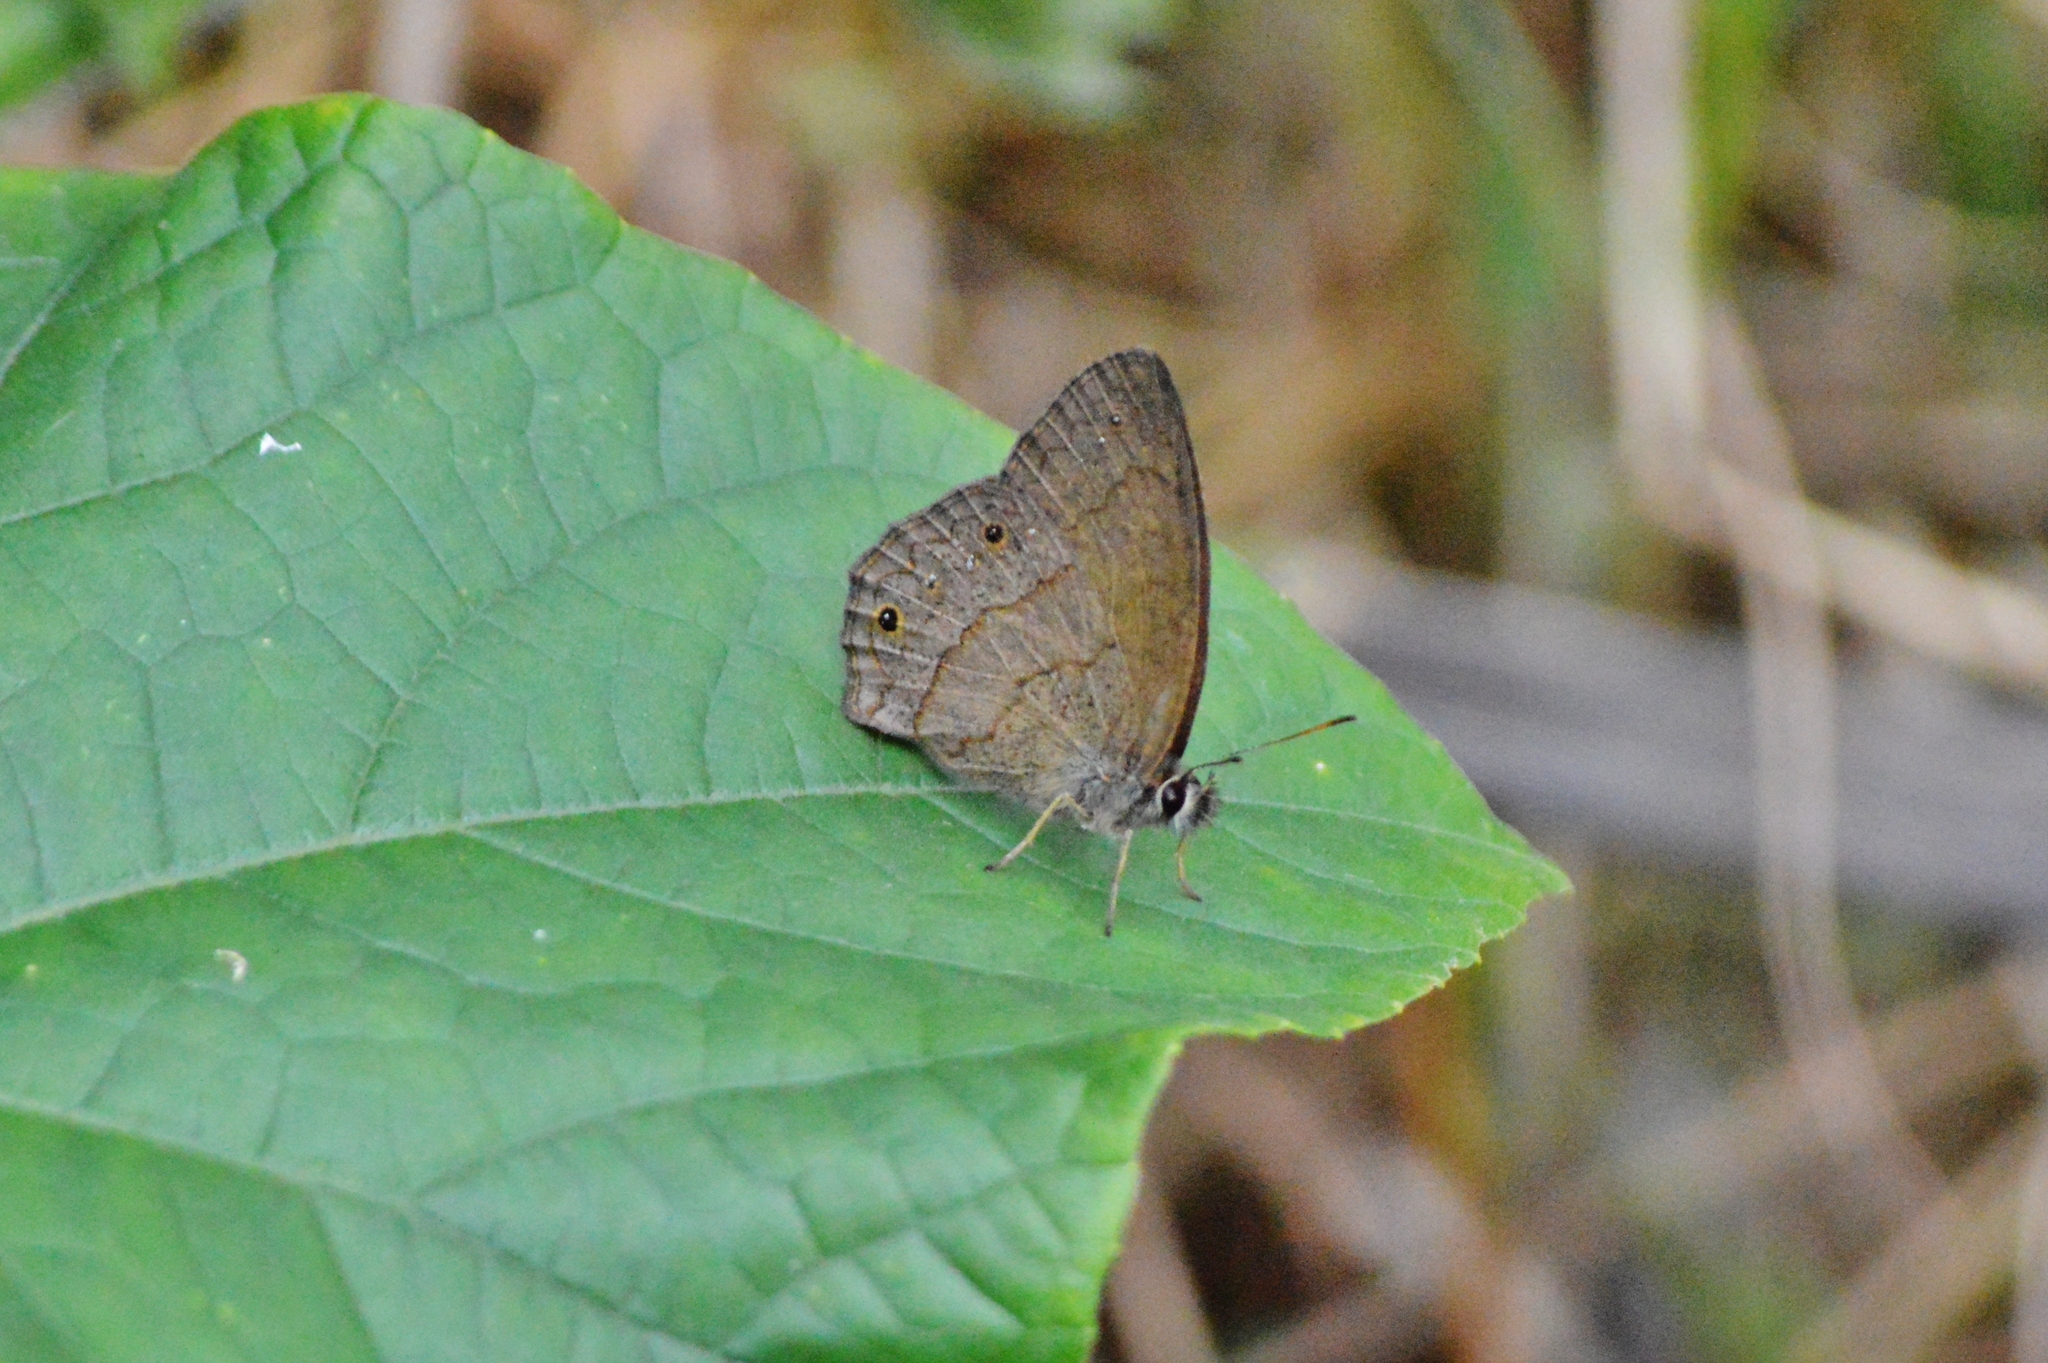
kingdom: Animalia
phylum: Arthropoda
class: Insecta
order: Lepidoptera
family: Nymphalidae
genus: Euptychia
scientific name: Euptychia Cissia eous
